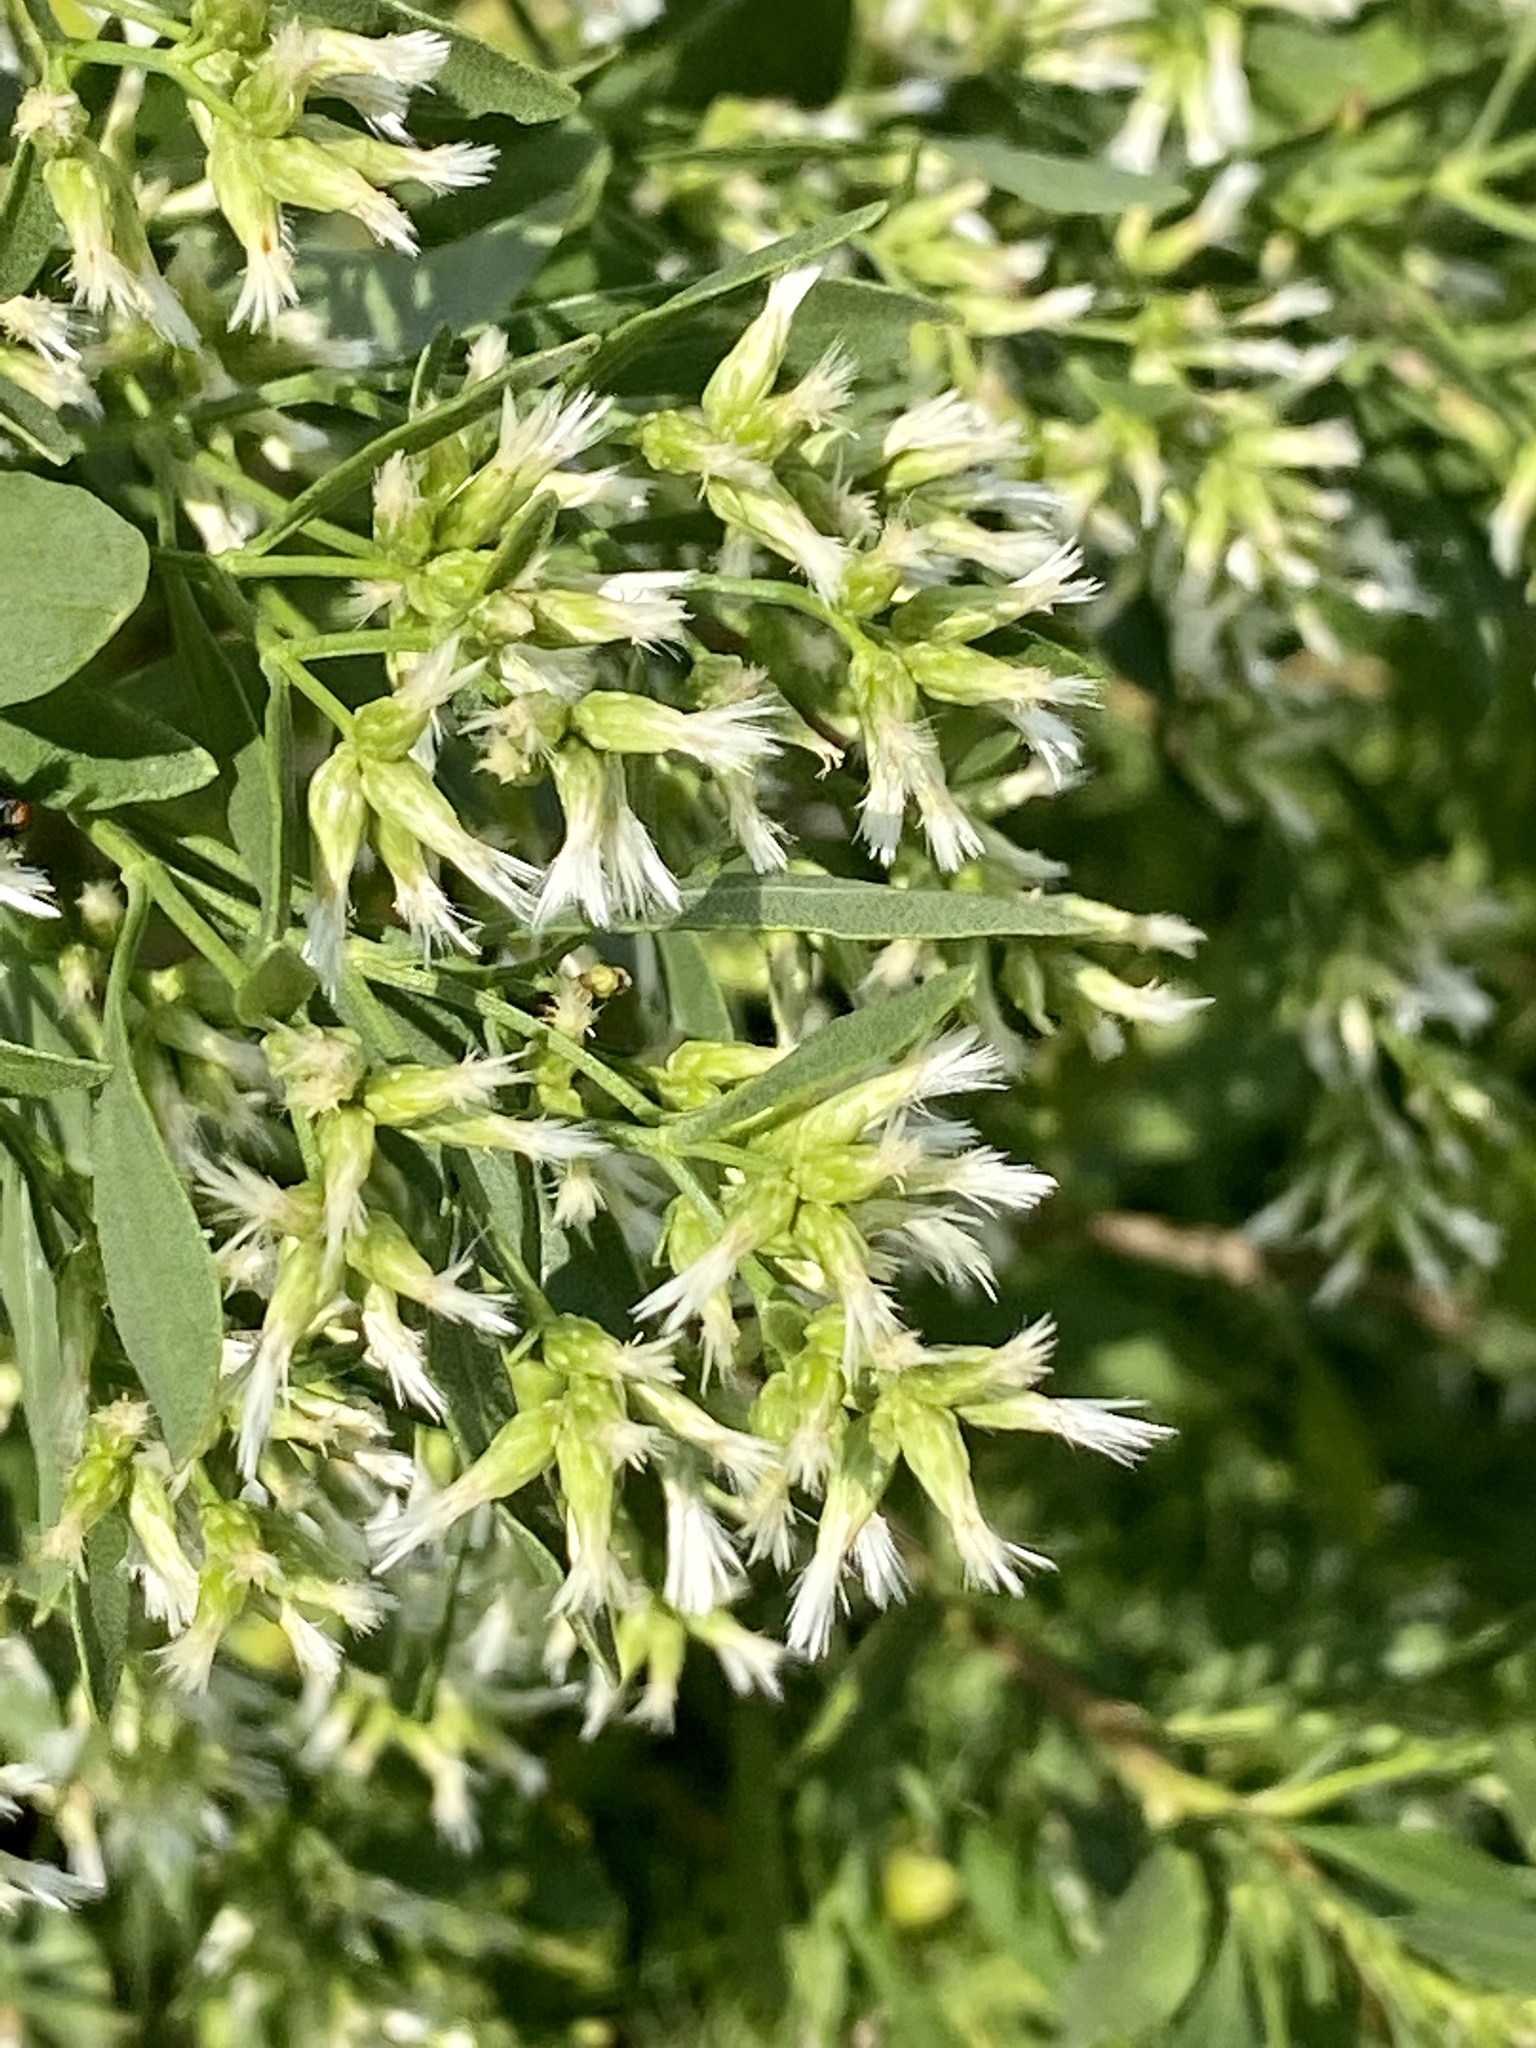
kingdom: Plantae
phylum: Tracheophyta
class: Magnoliopsida
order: Asterales
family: Asteraceae
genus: Baccharis
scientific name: Baccharis halimifolia
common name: Eastern baccharis
